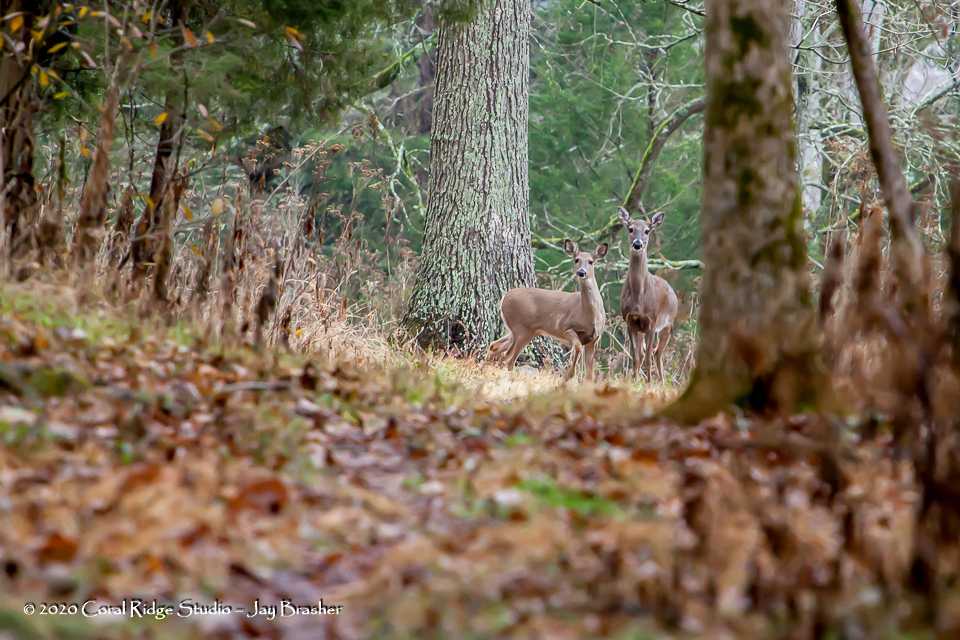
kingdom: Animalia
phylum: Chordata
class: Mammalia
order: Artiodactyla
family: Cervidae
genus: Odocoileus
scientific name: Odocoileus virginianus
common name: White-tailed deer
